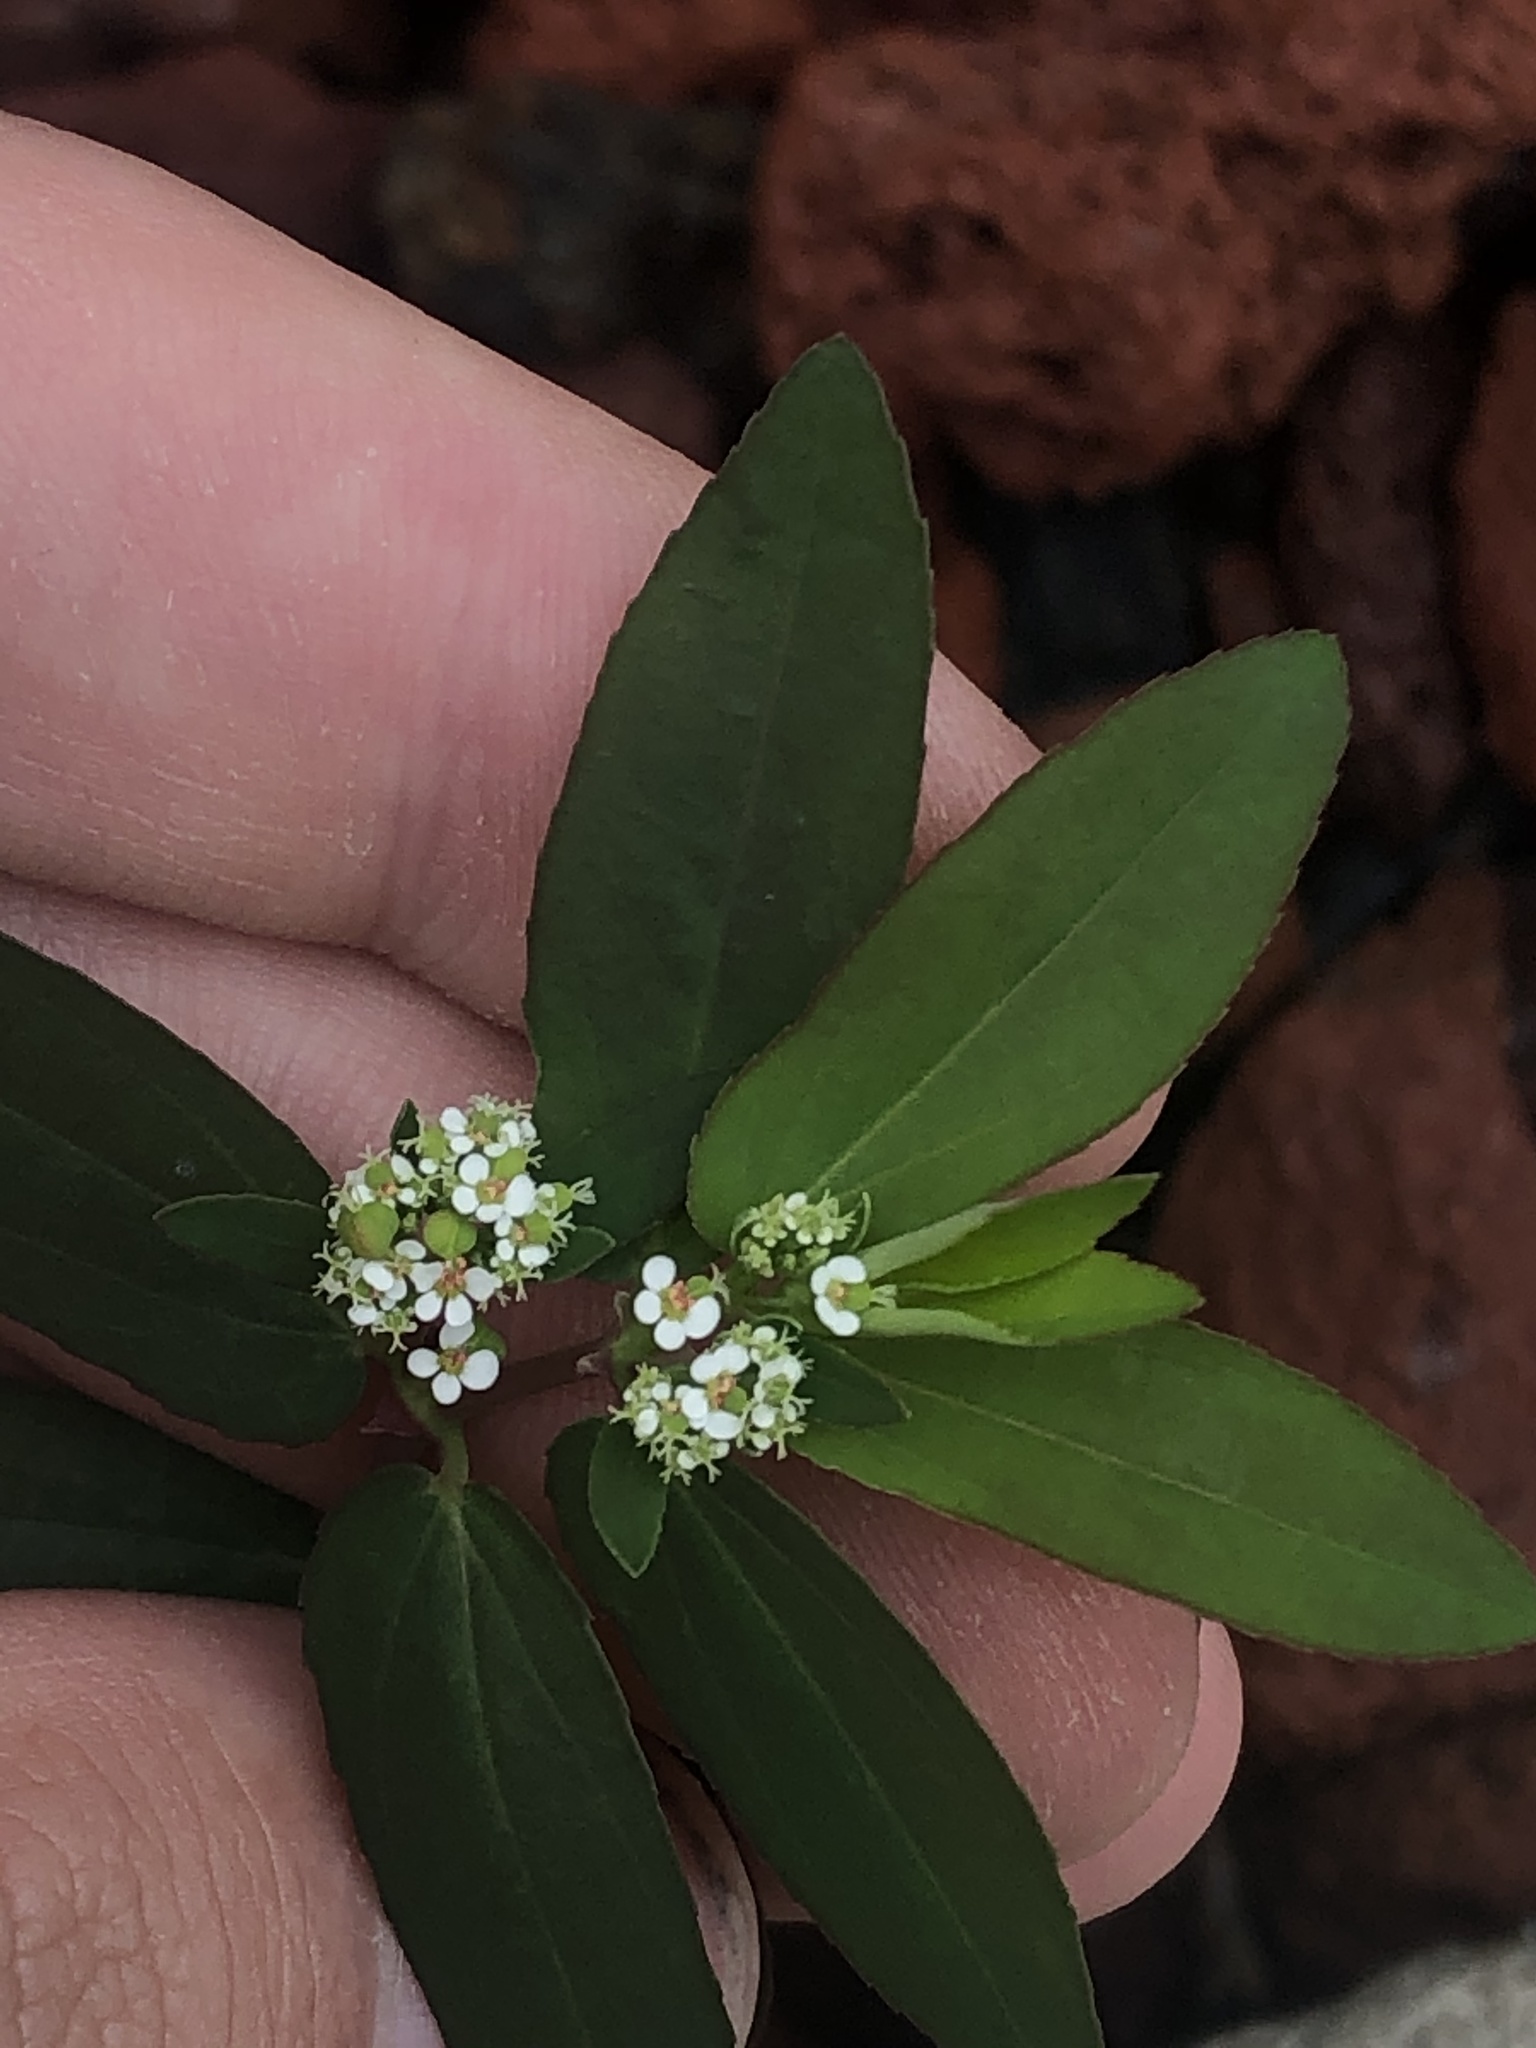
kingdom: Plantae
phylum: Tracheophyta
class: Magnoliopsida
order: Malpighiales
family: Euphorbiaceae
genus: Euphorbia
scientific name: Euphorbia hypericifolia
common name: Graceful sandmat
